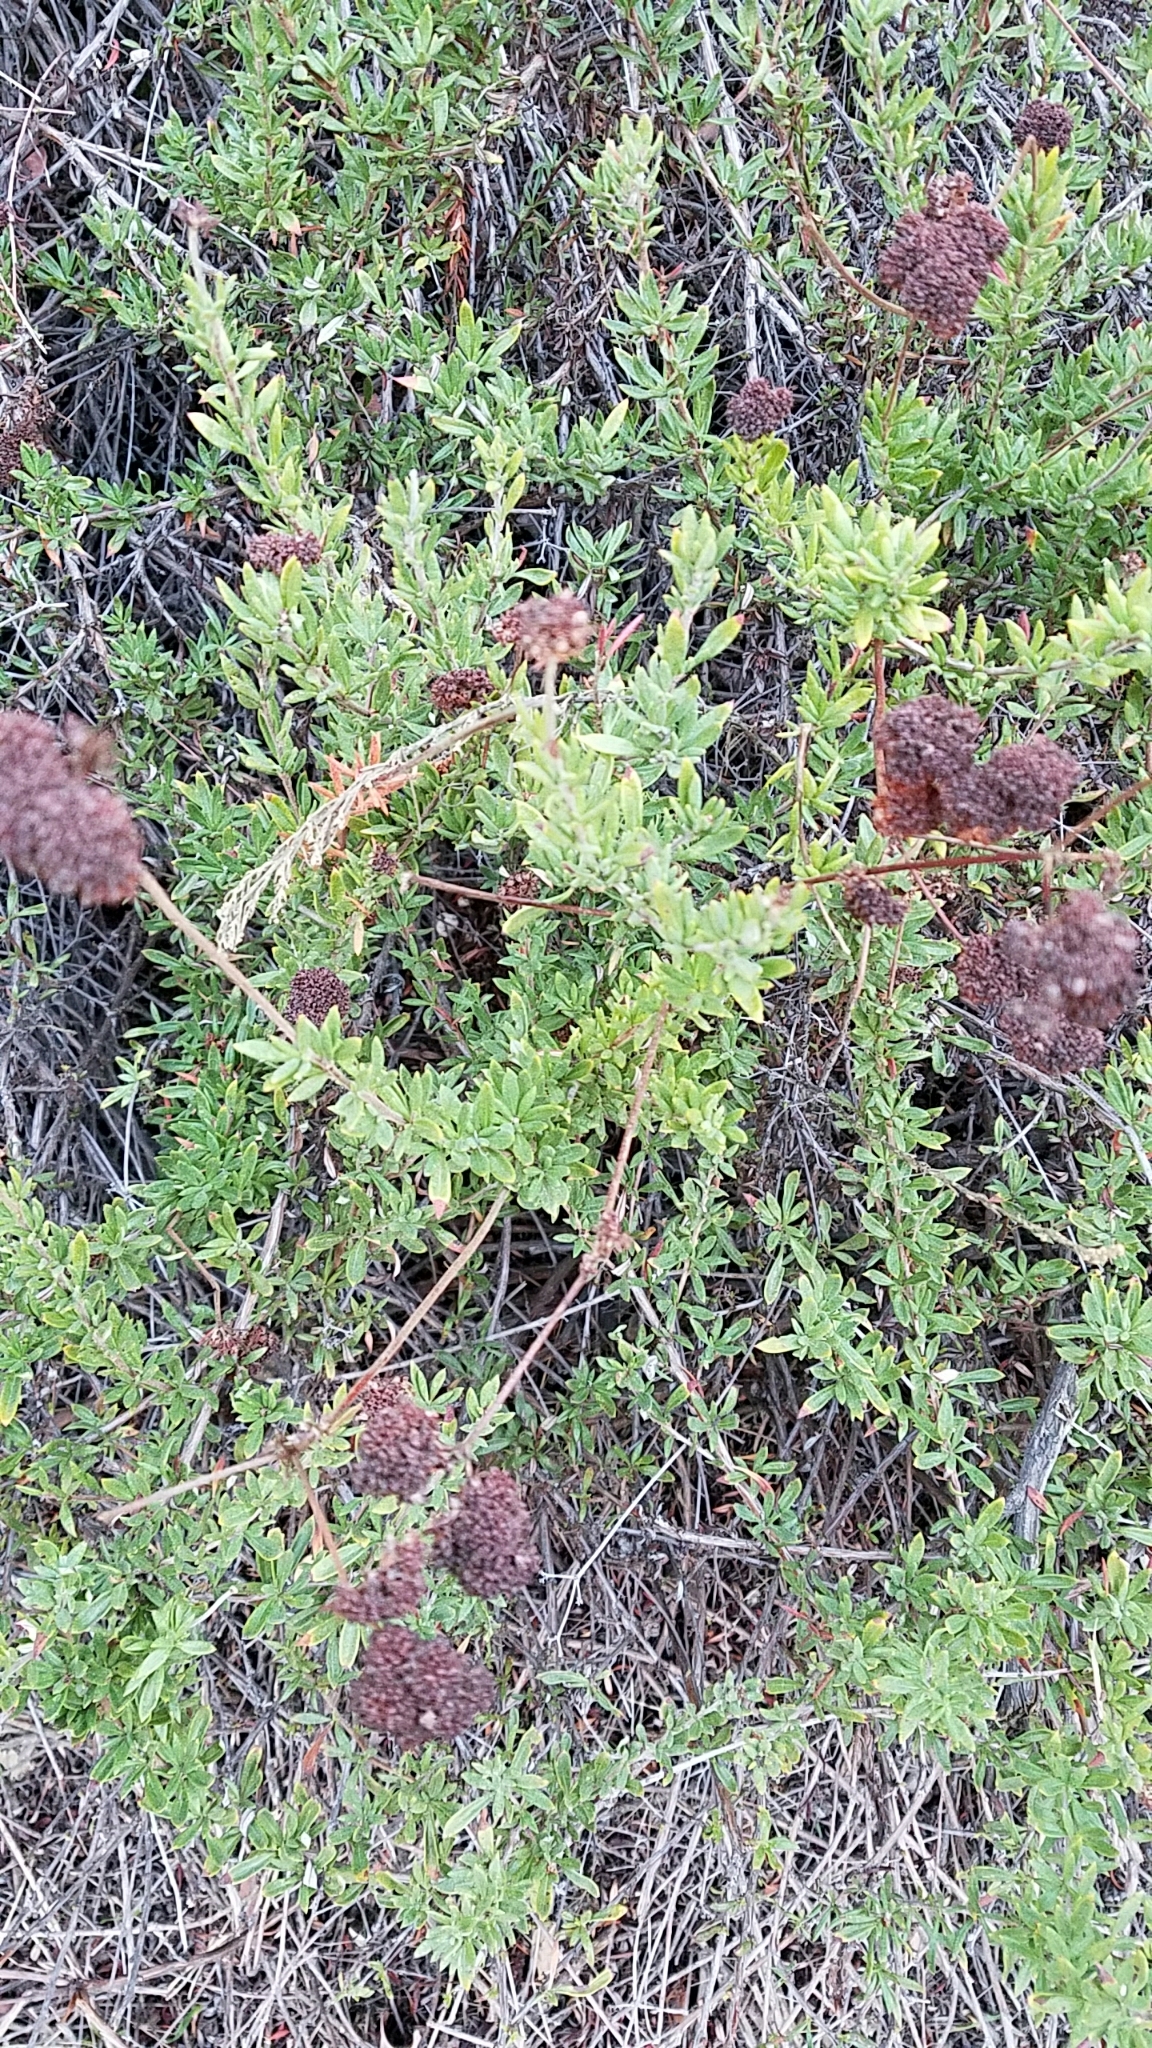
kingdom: Plantae
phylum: Tracheophyta
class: Magnoliopsida
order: Caryophyllales
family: Polygonaceae
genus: Eriogonum
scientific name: Eriogonum fasciculatum
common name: California wild buckwheat
